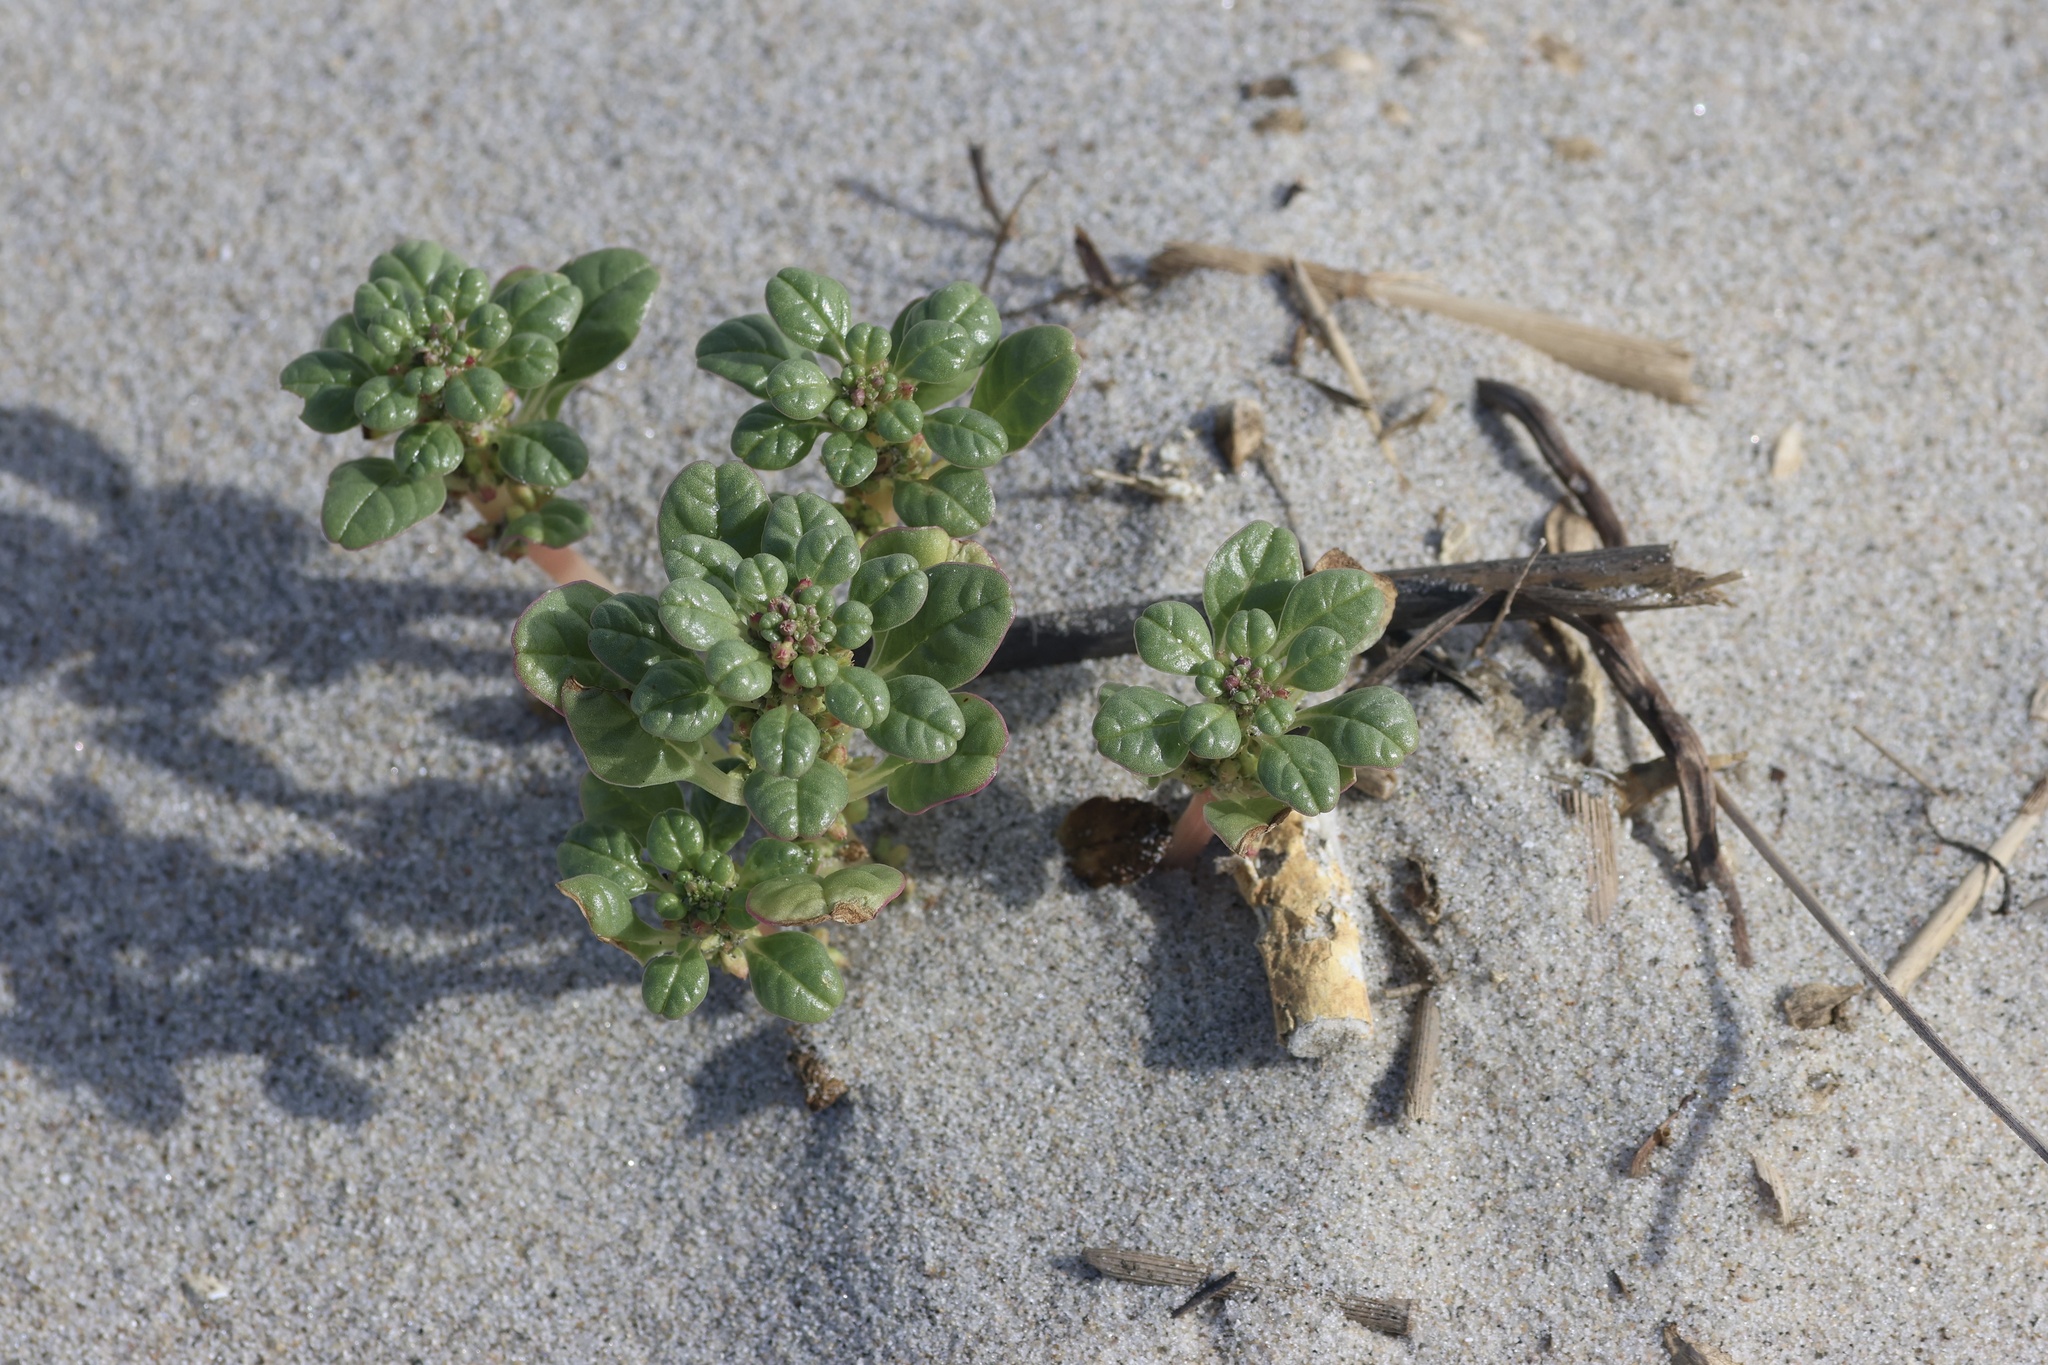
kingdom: Plantae
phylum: Tracheophyta
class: Magnoliopsida
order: Caryophyllales
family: Amaranthaceae
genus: Amaranthus
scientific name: Amaranthus pumilus
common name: Coast amaranth
